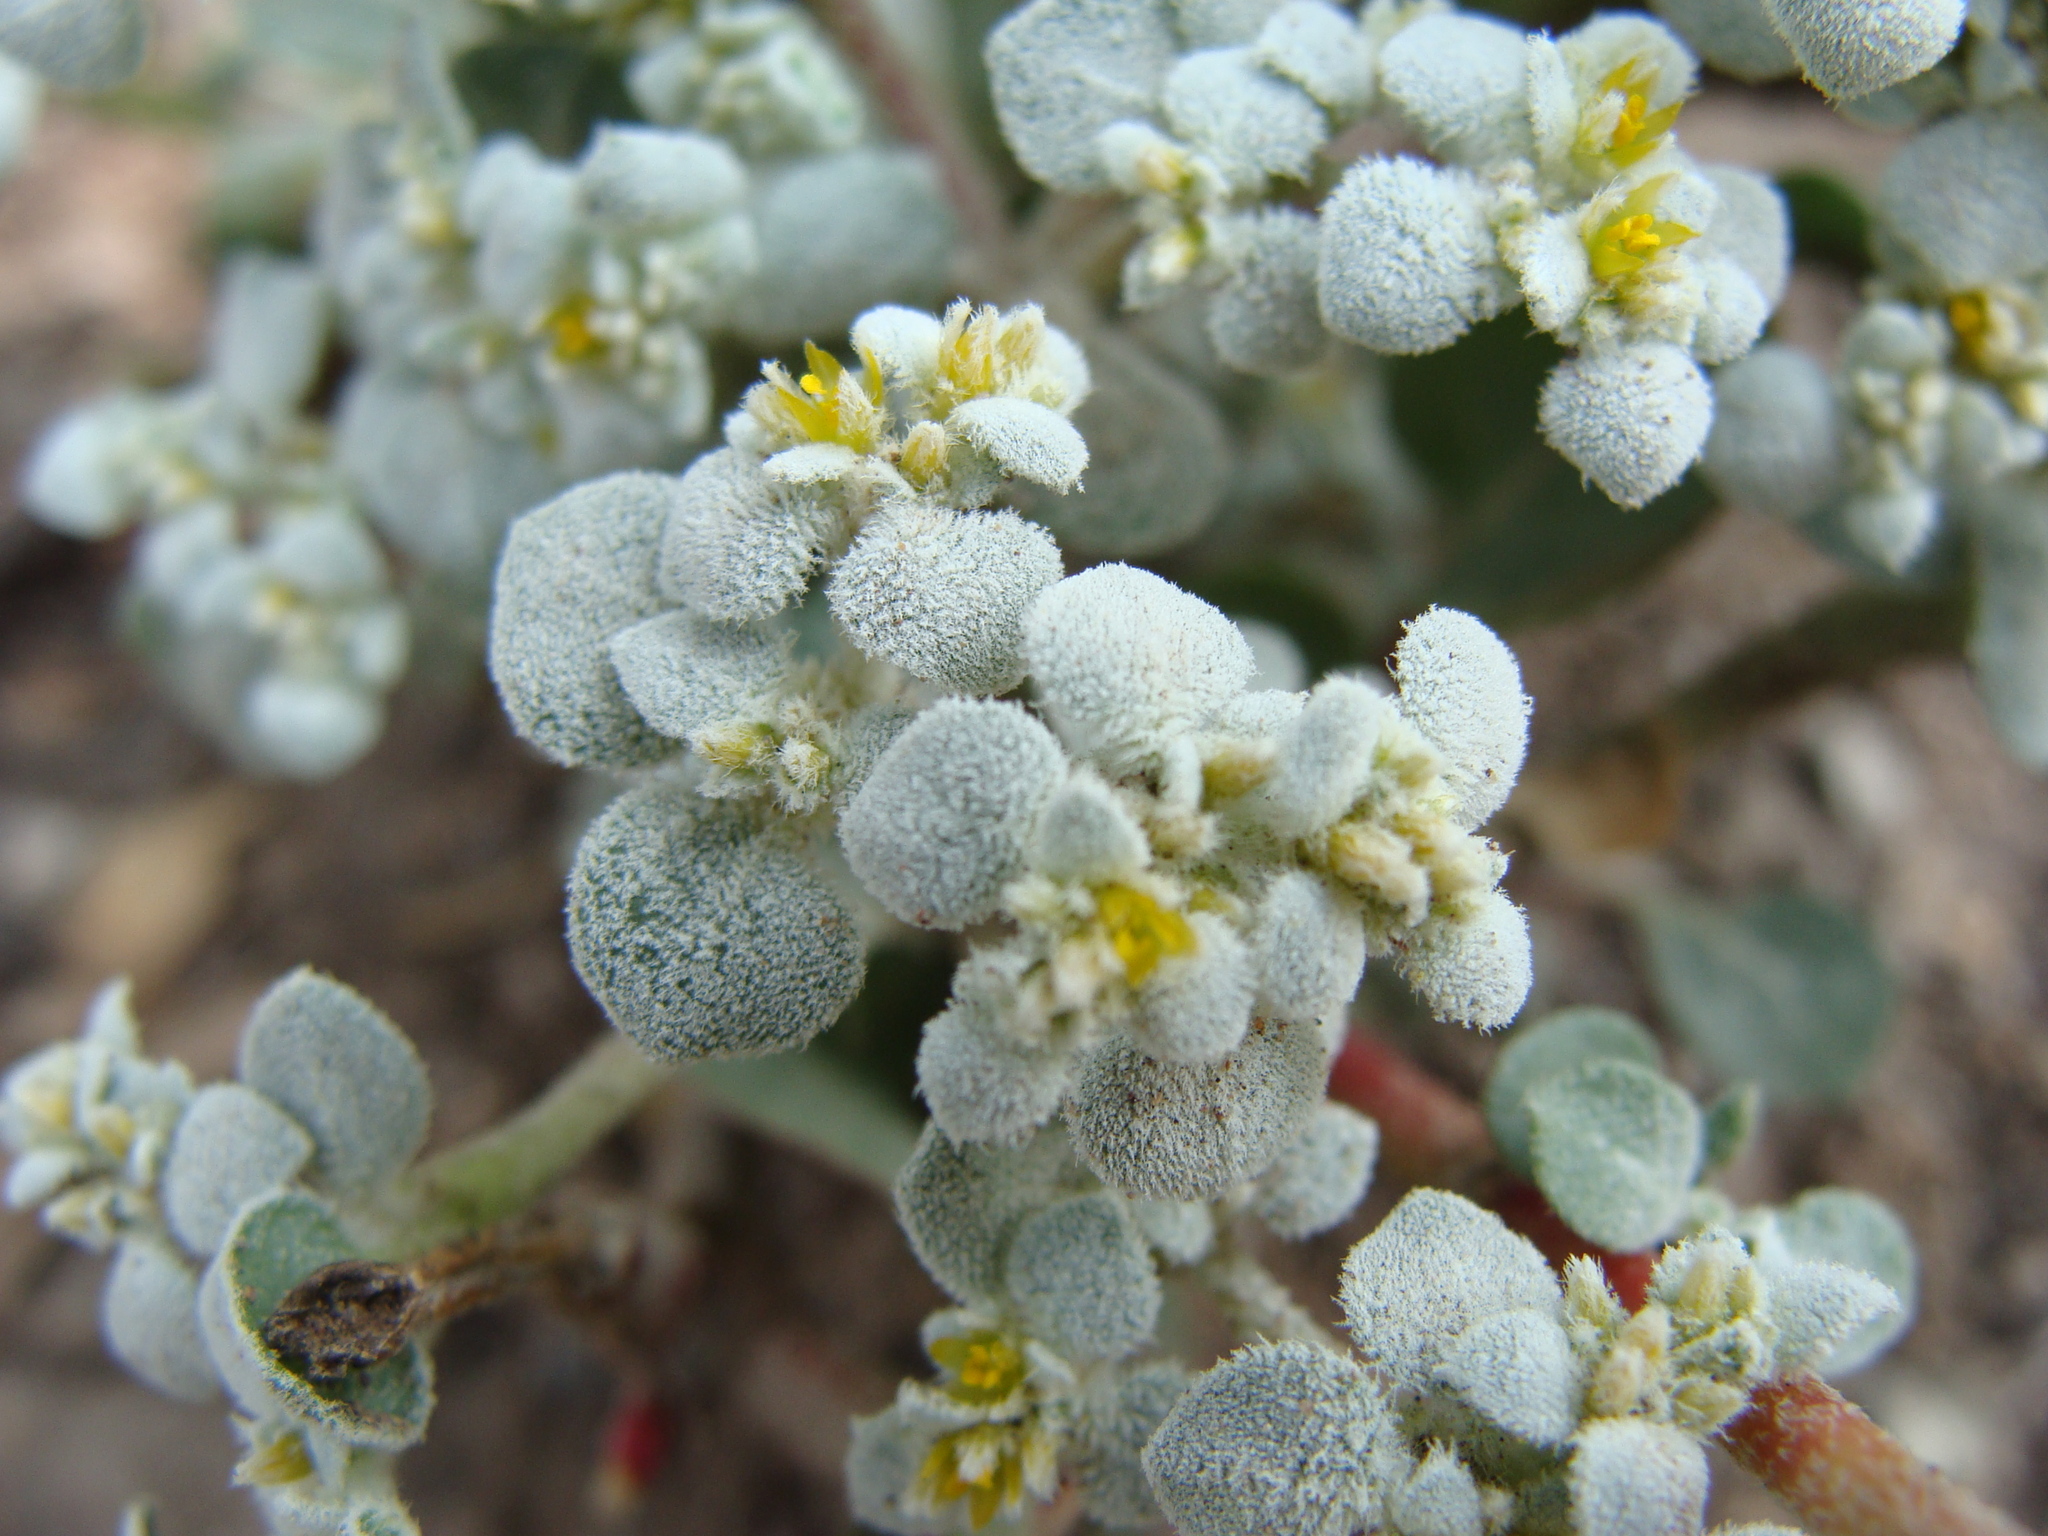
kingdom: Plantae
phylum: Tracheophyta
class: Magnoliopsida
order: Caryophyllales
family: Amaranthaceae
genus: Tidestromia
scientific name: Tidestromia lanuginosa
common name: Woolly tidestromia
